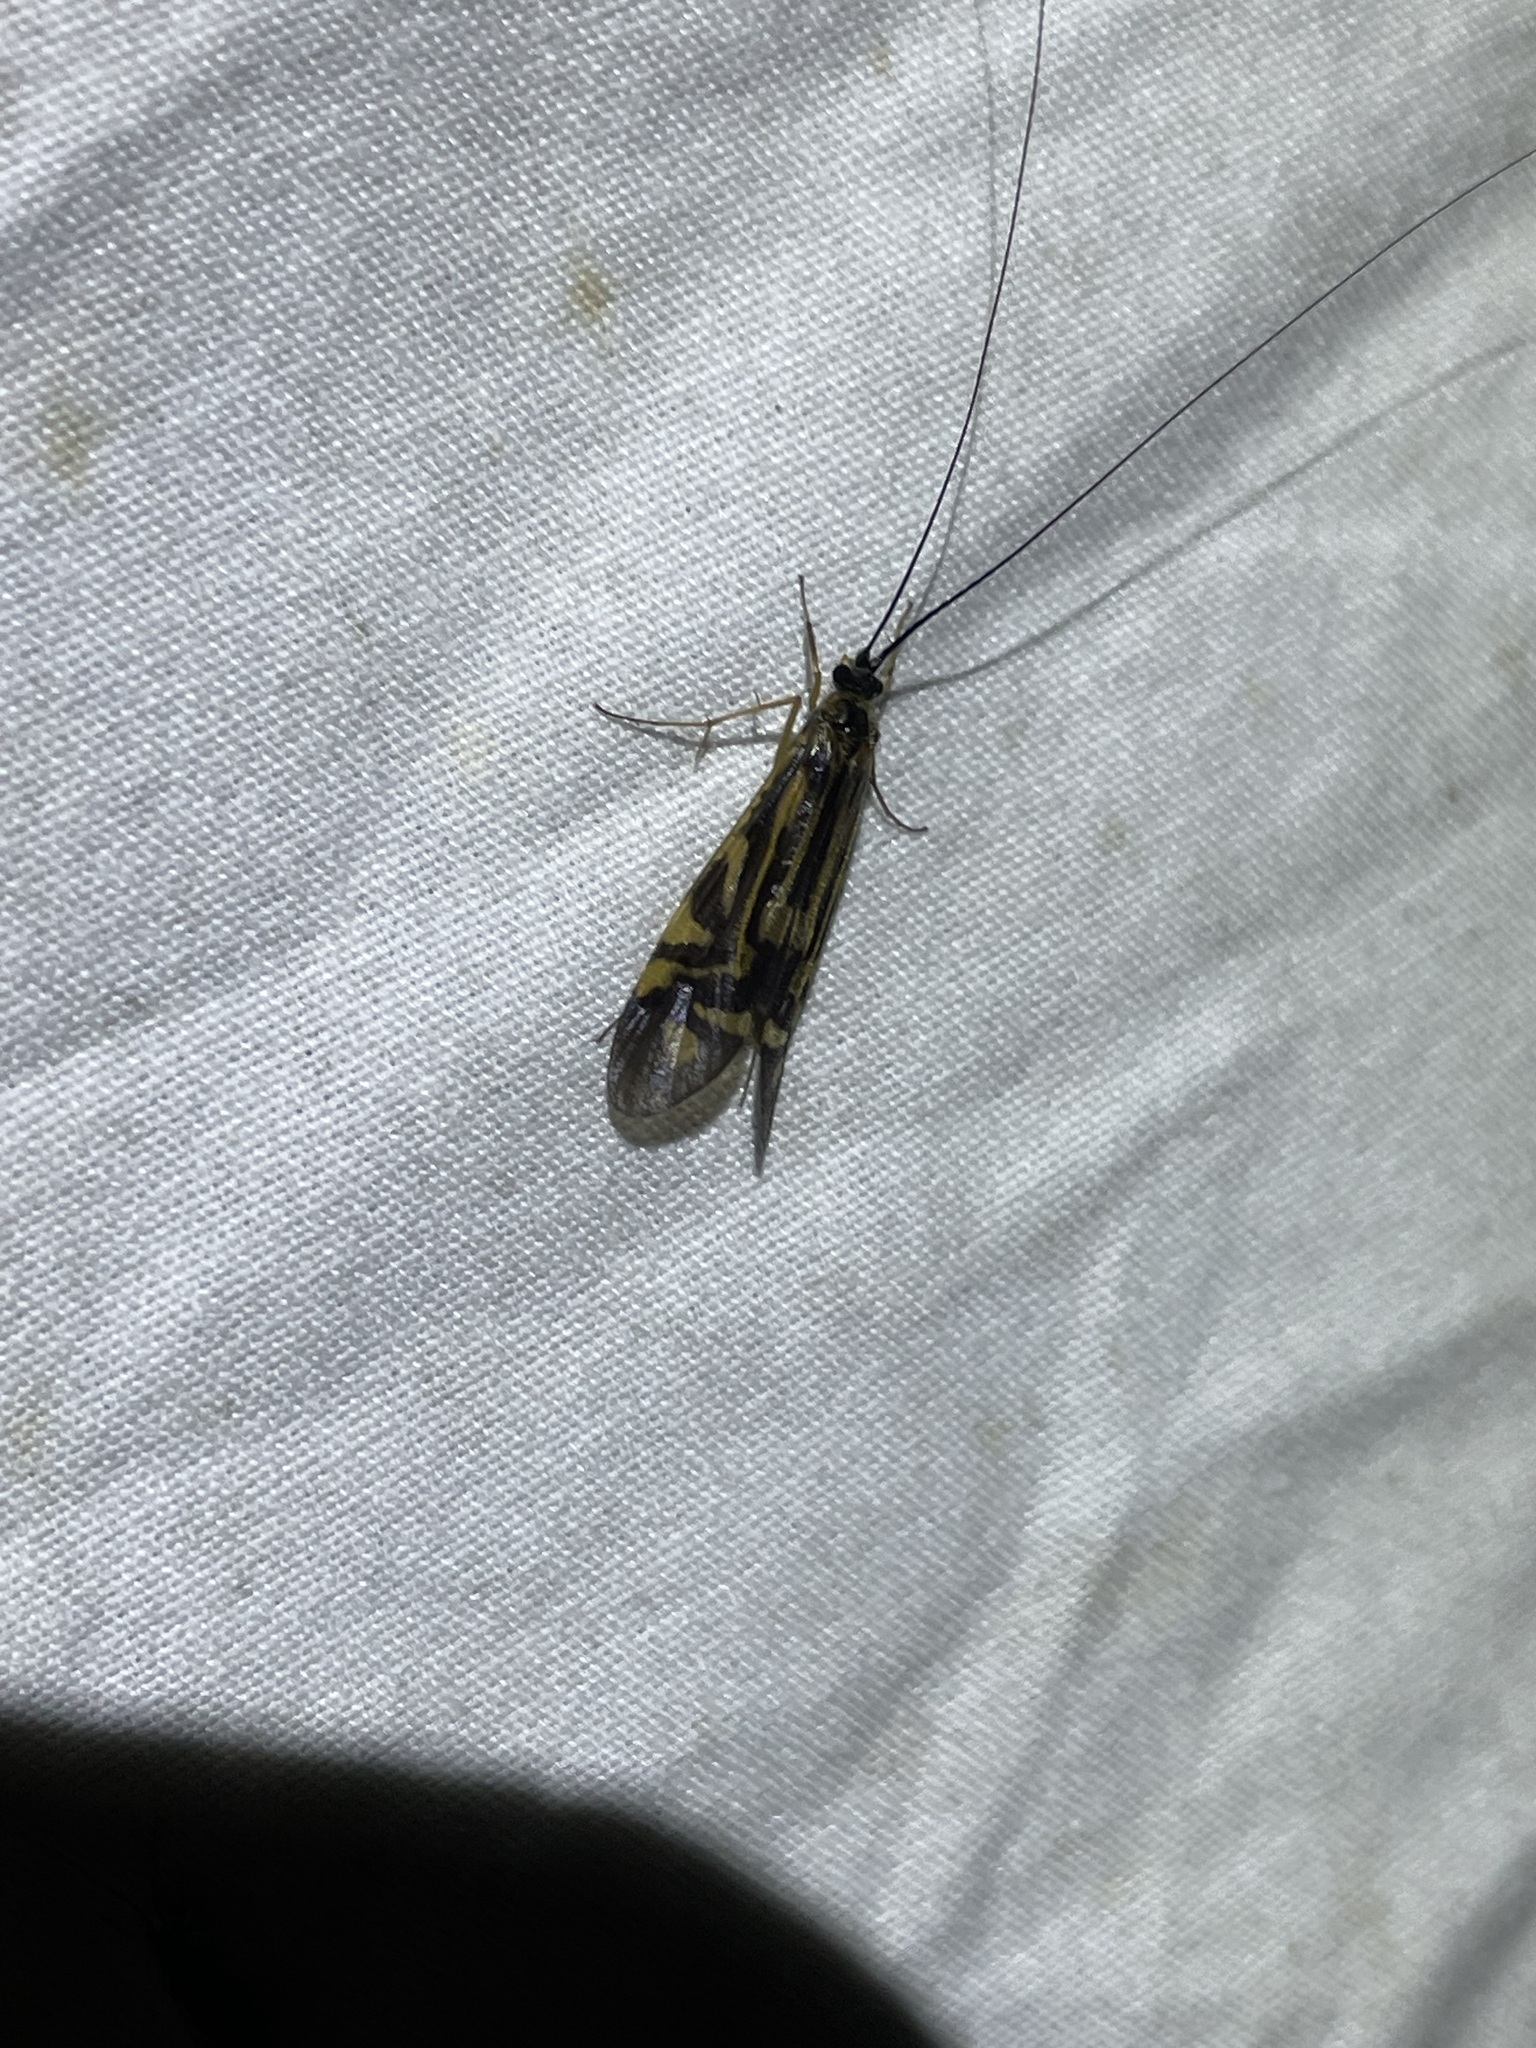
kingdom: Animalia
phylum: Arthropoda
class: Insecta
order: Trichoptera
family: Hydropsychidae
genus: Macrostemum
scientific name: Macrostemum zebratum
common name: Zebra caddisfly
